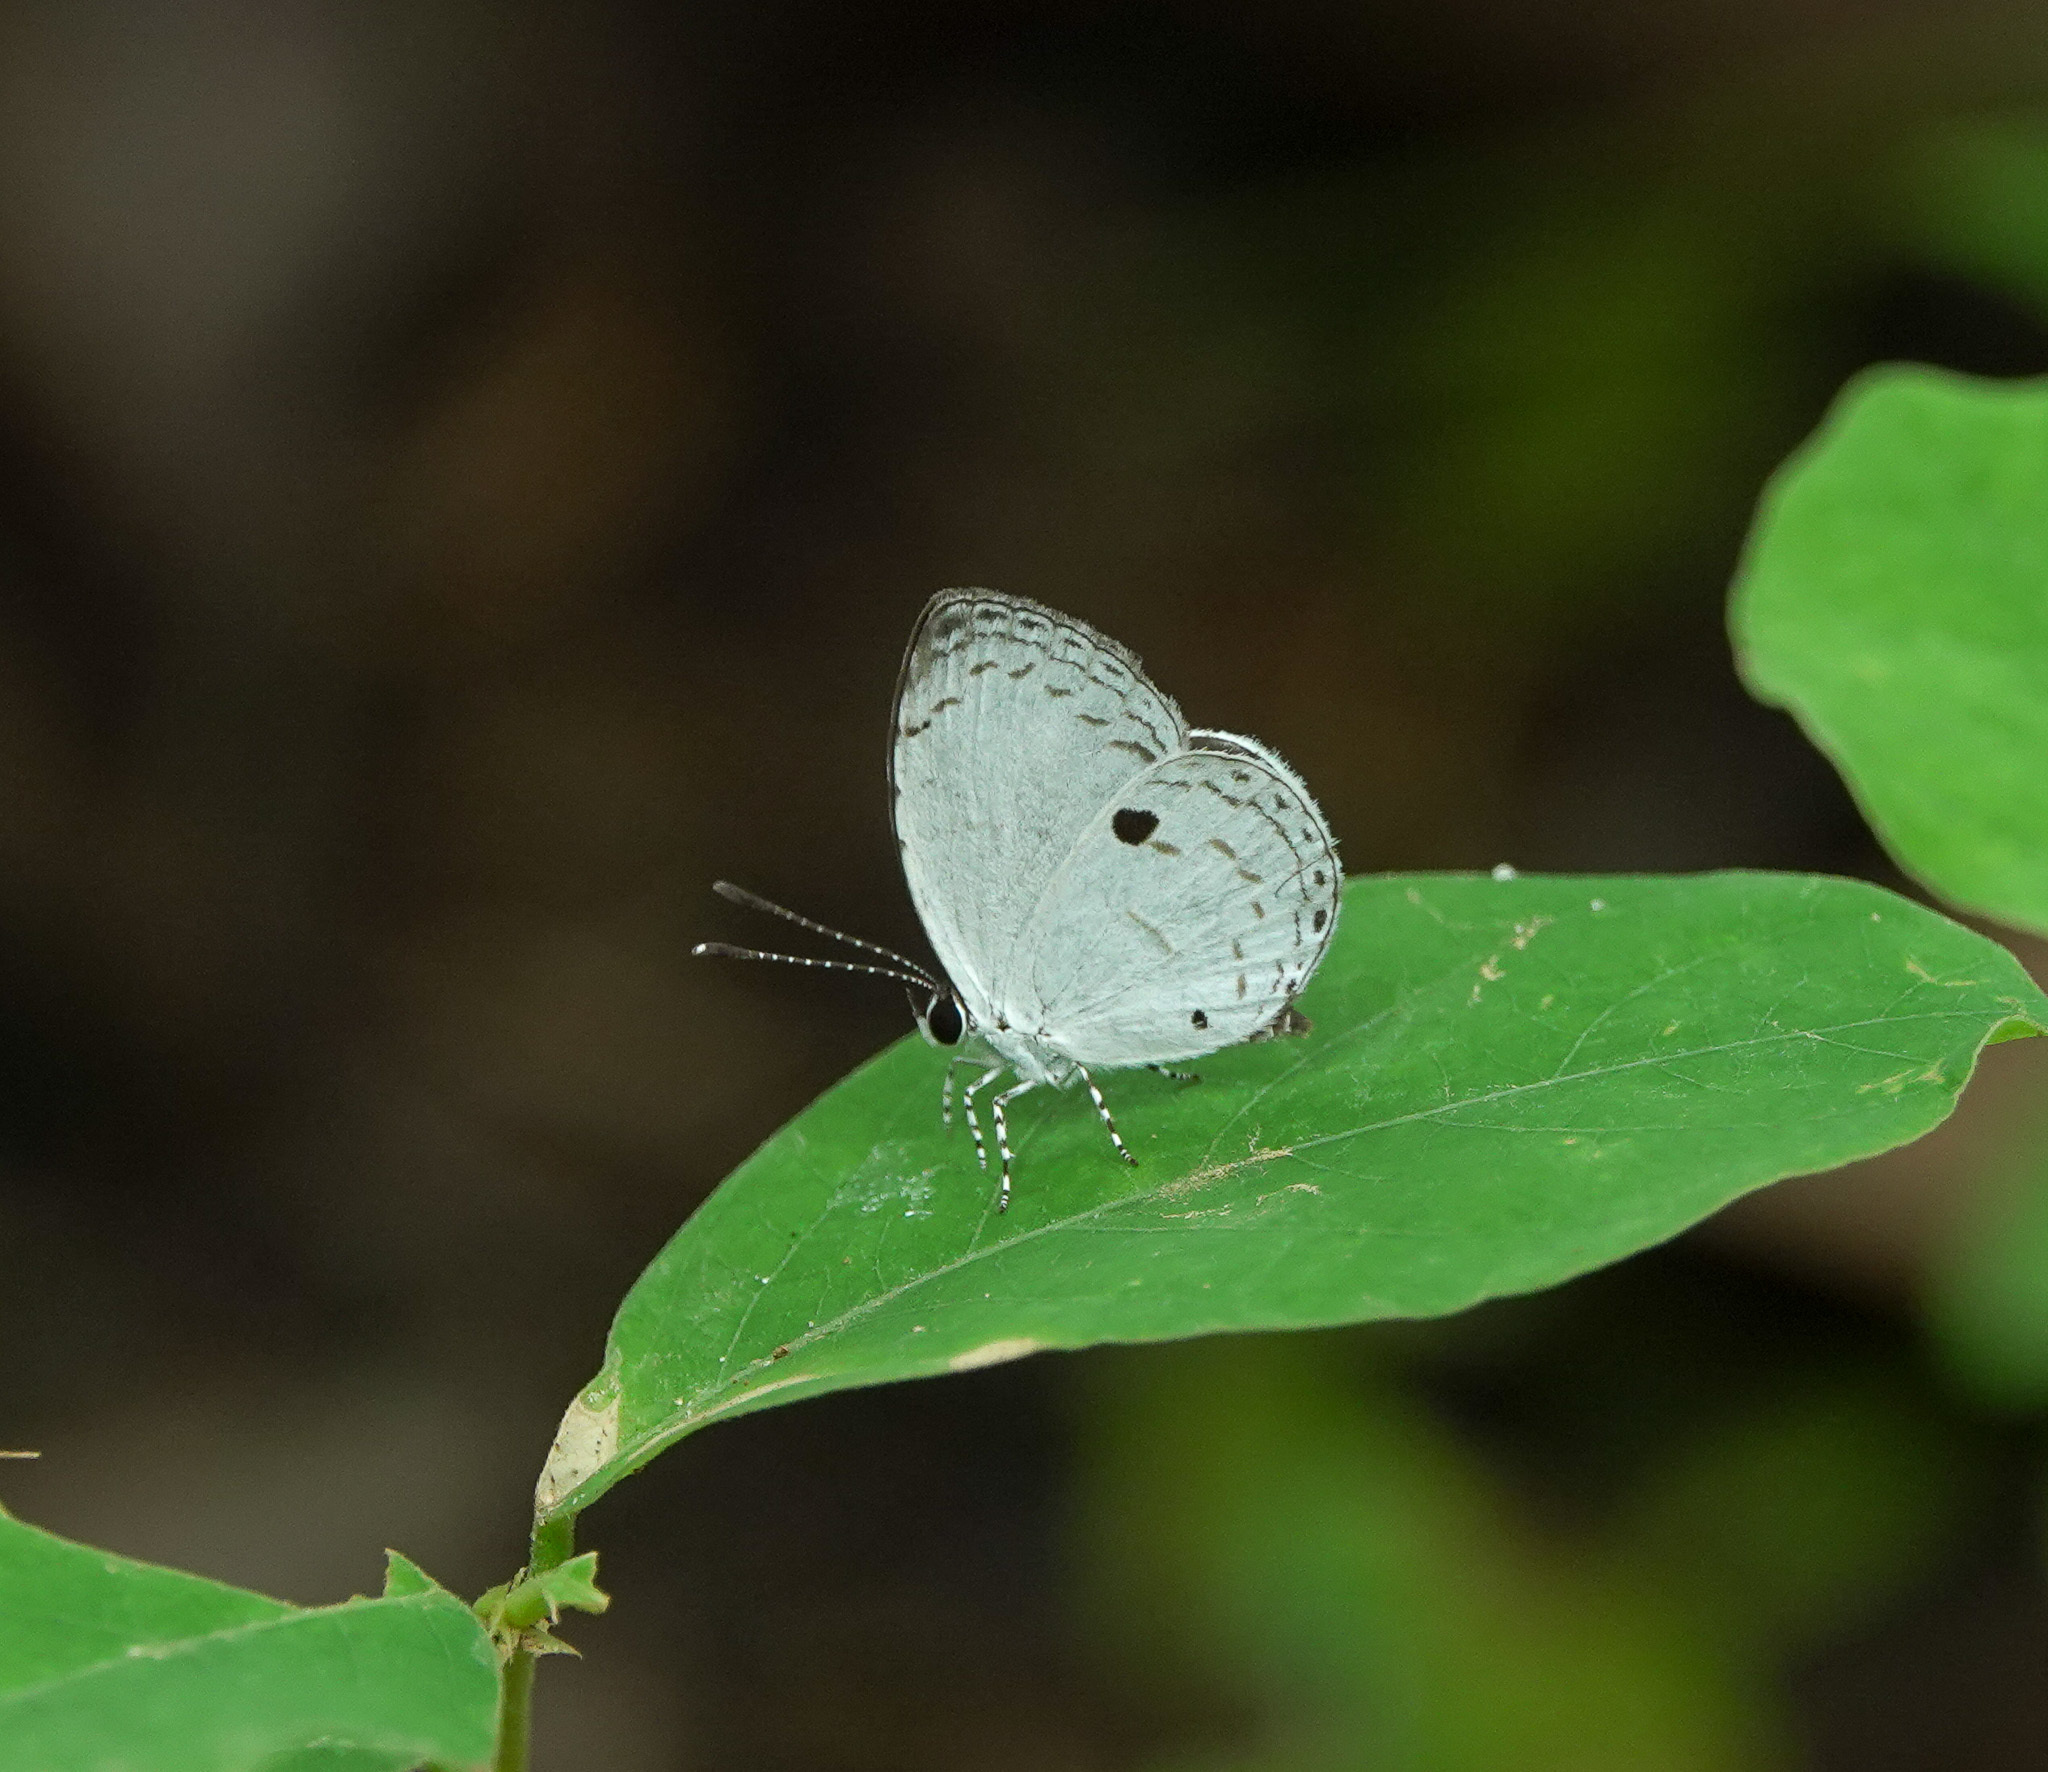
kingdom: Animalia
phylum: Arthropoda
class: Insecta
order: Lepidoptera
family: Lycaenidae
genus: Neopithecops
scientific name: Neopithecops zalmora
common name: Quaker
